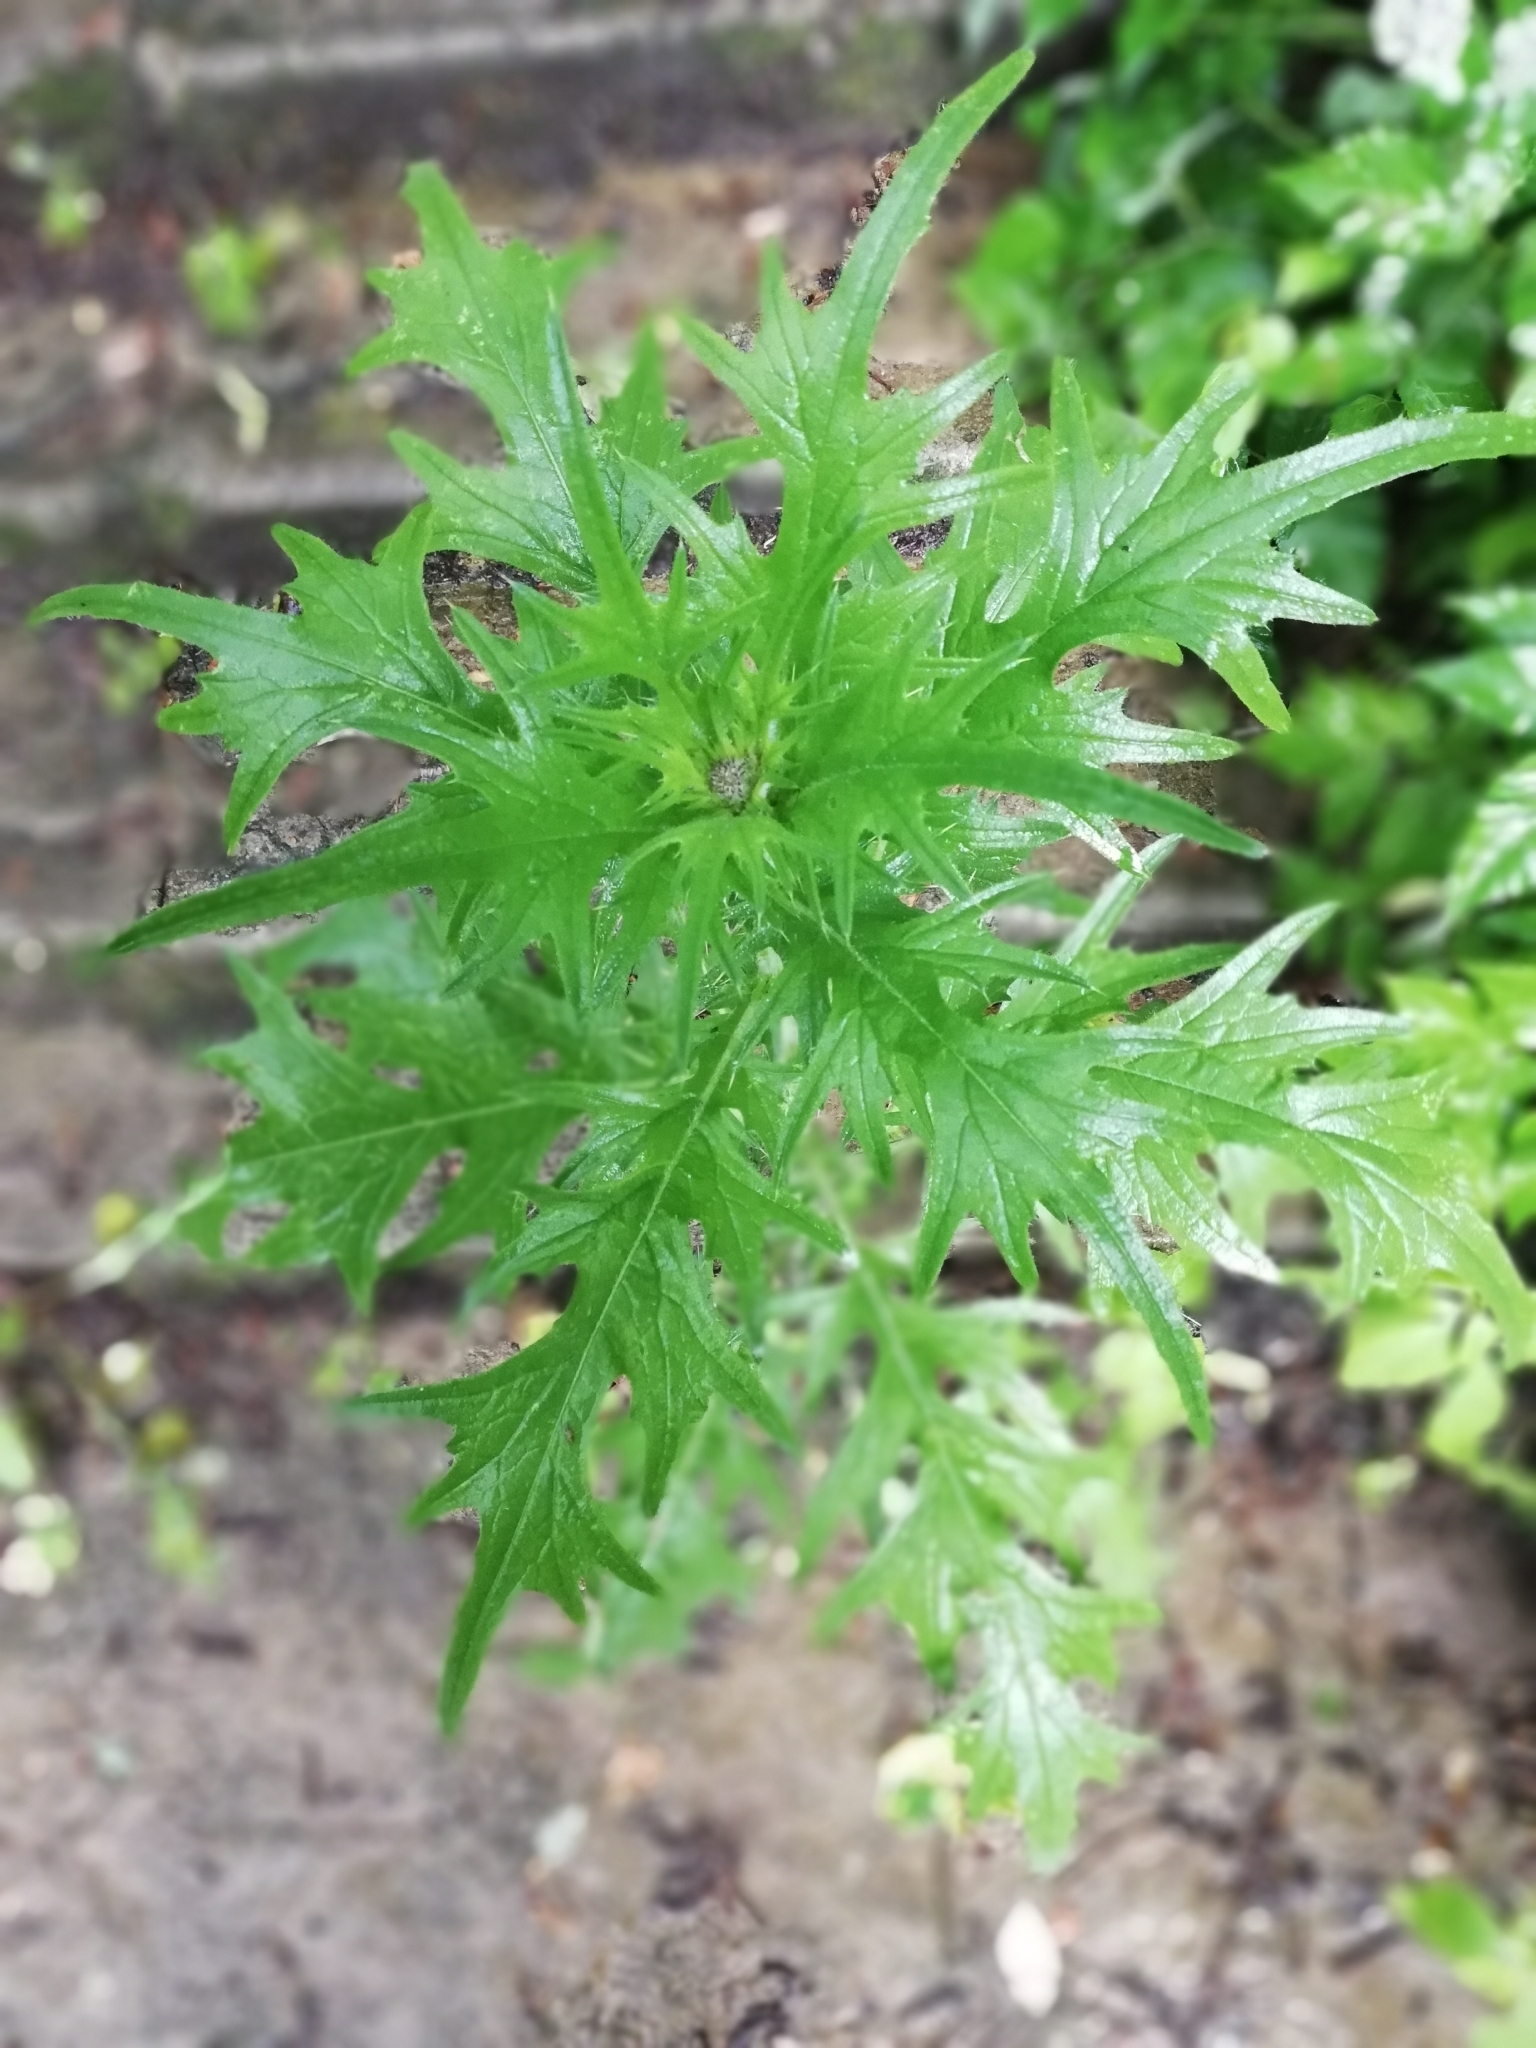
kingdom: Plantae
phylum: Tracheophyta
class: Magnoliopsida
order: Asterales
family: Asteraceae
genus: Carduus
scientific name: Carduus crispus
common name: Welted thistle
